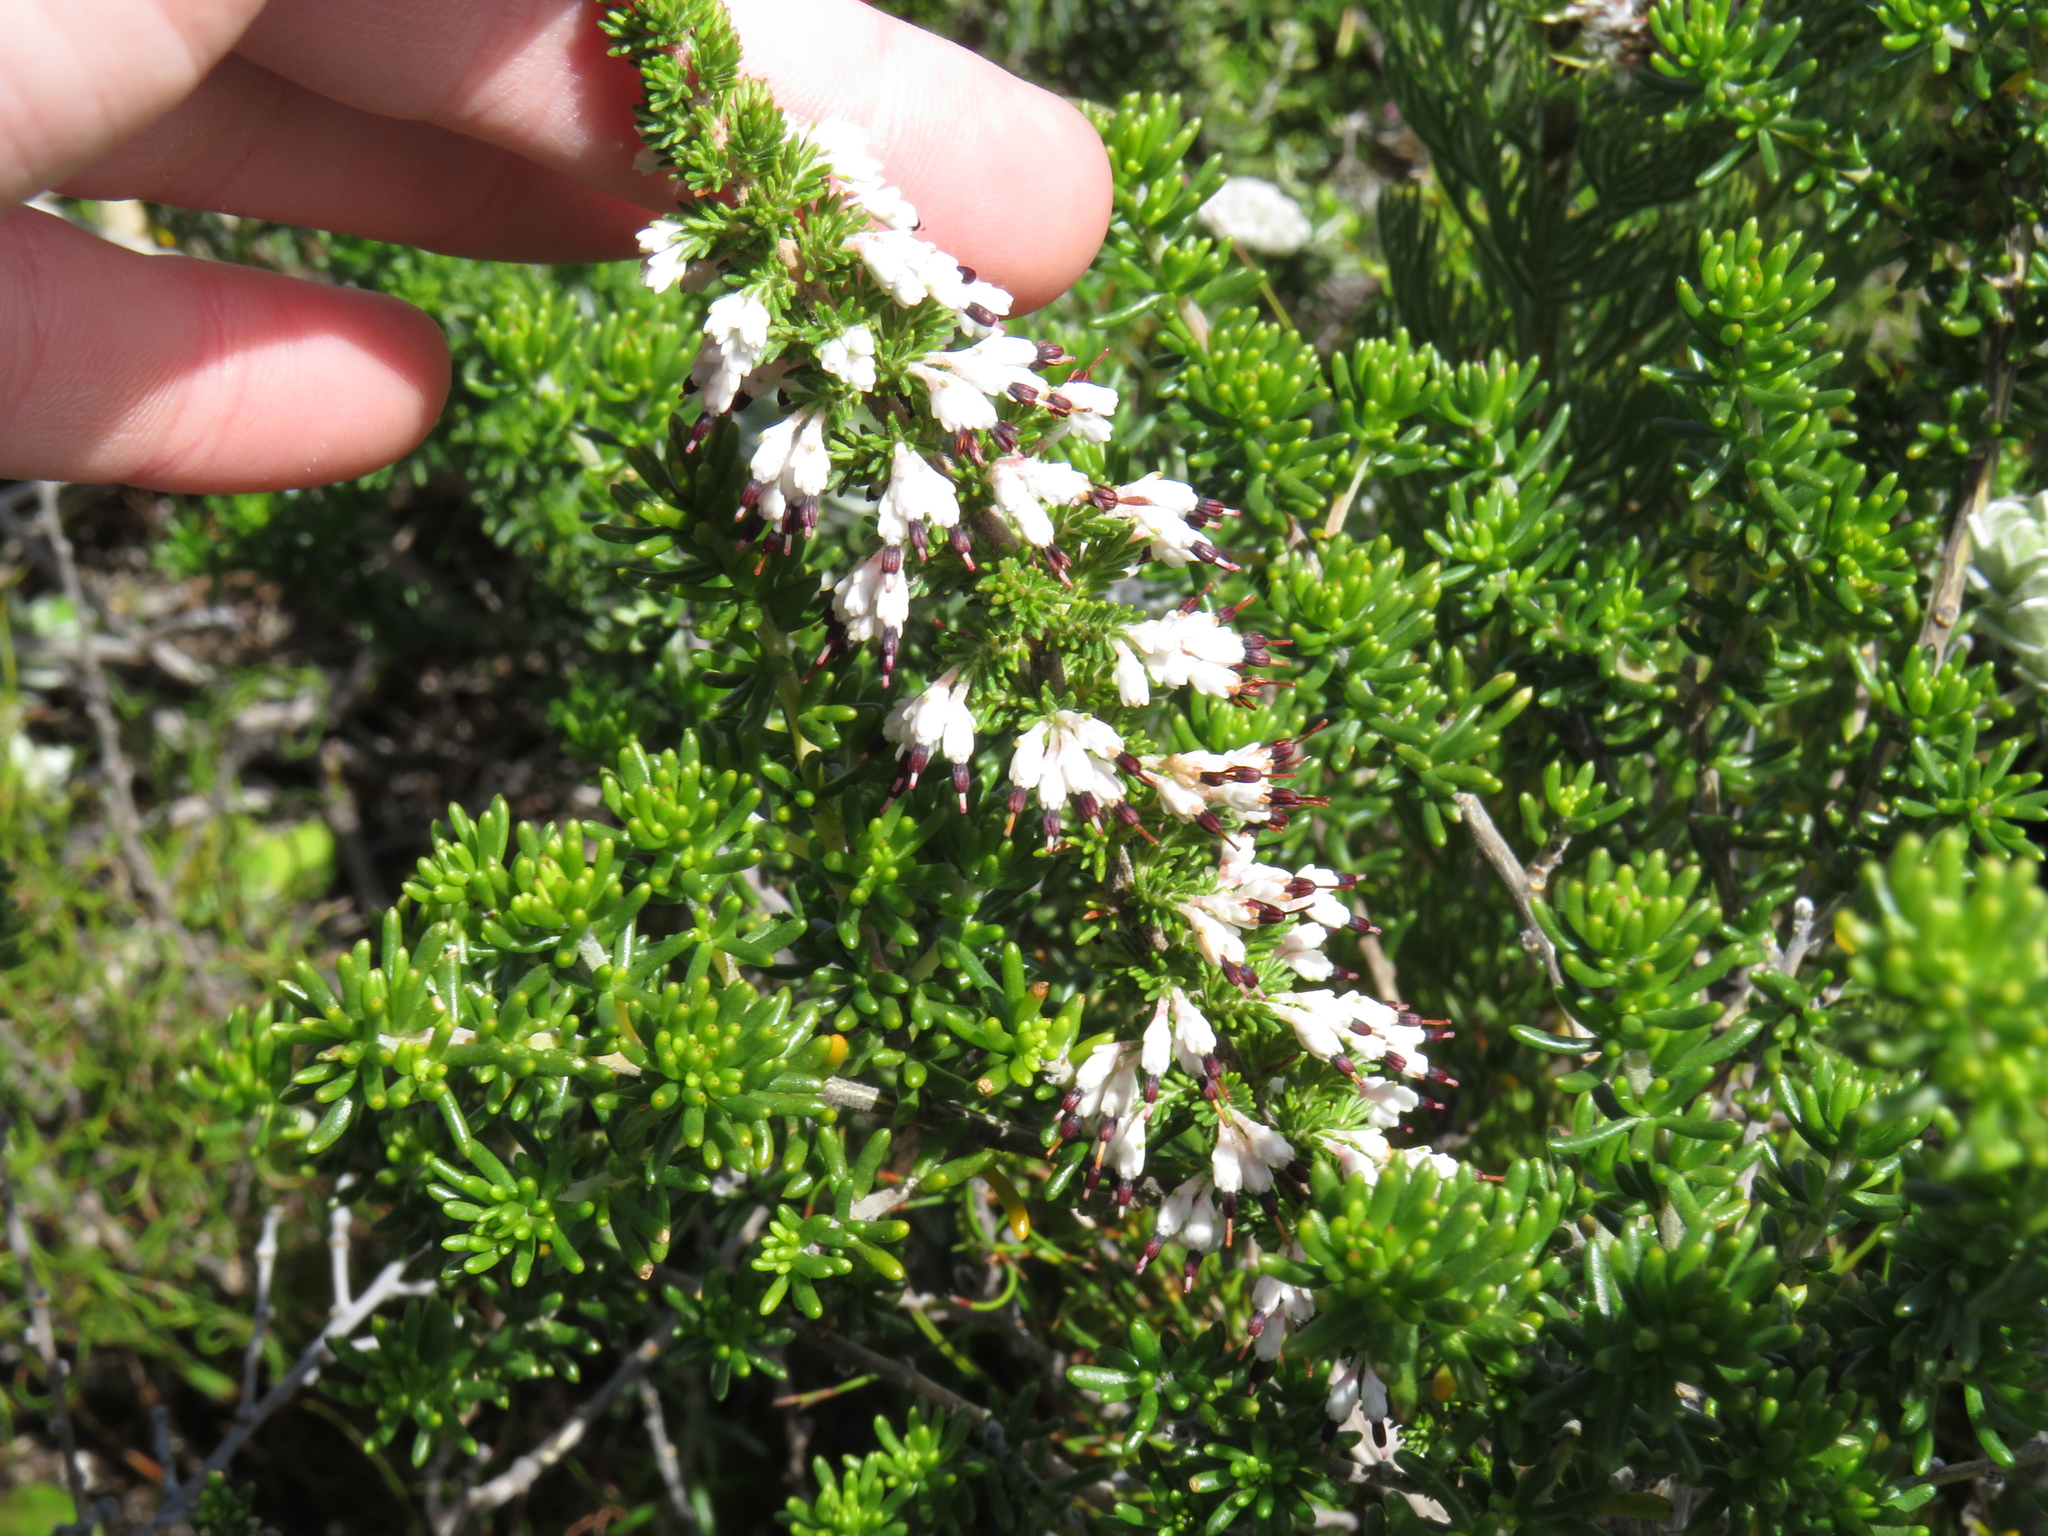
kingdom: Plantae
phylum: Tracheophyta
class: Magnoliopsida
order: Ericales
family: Ericaceae
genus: Erica
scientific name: Erica imbricata
